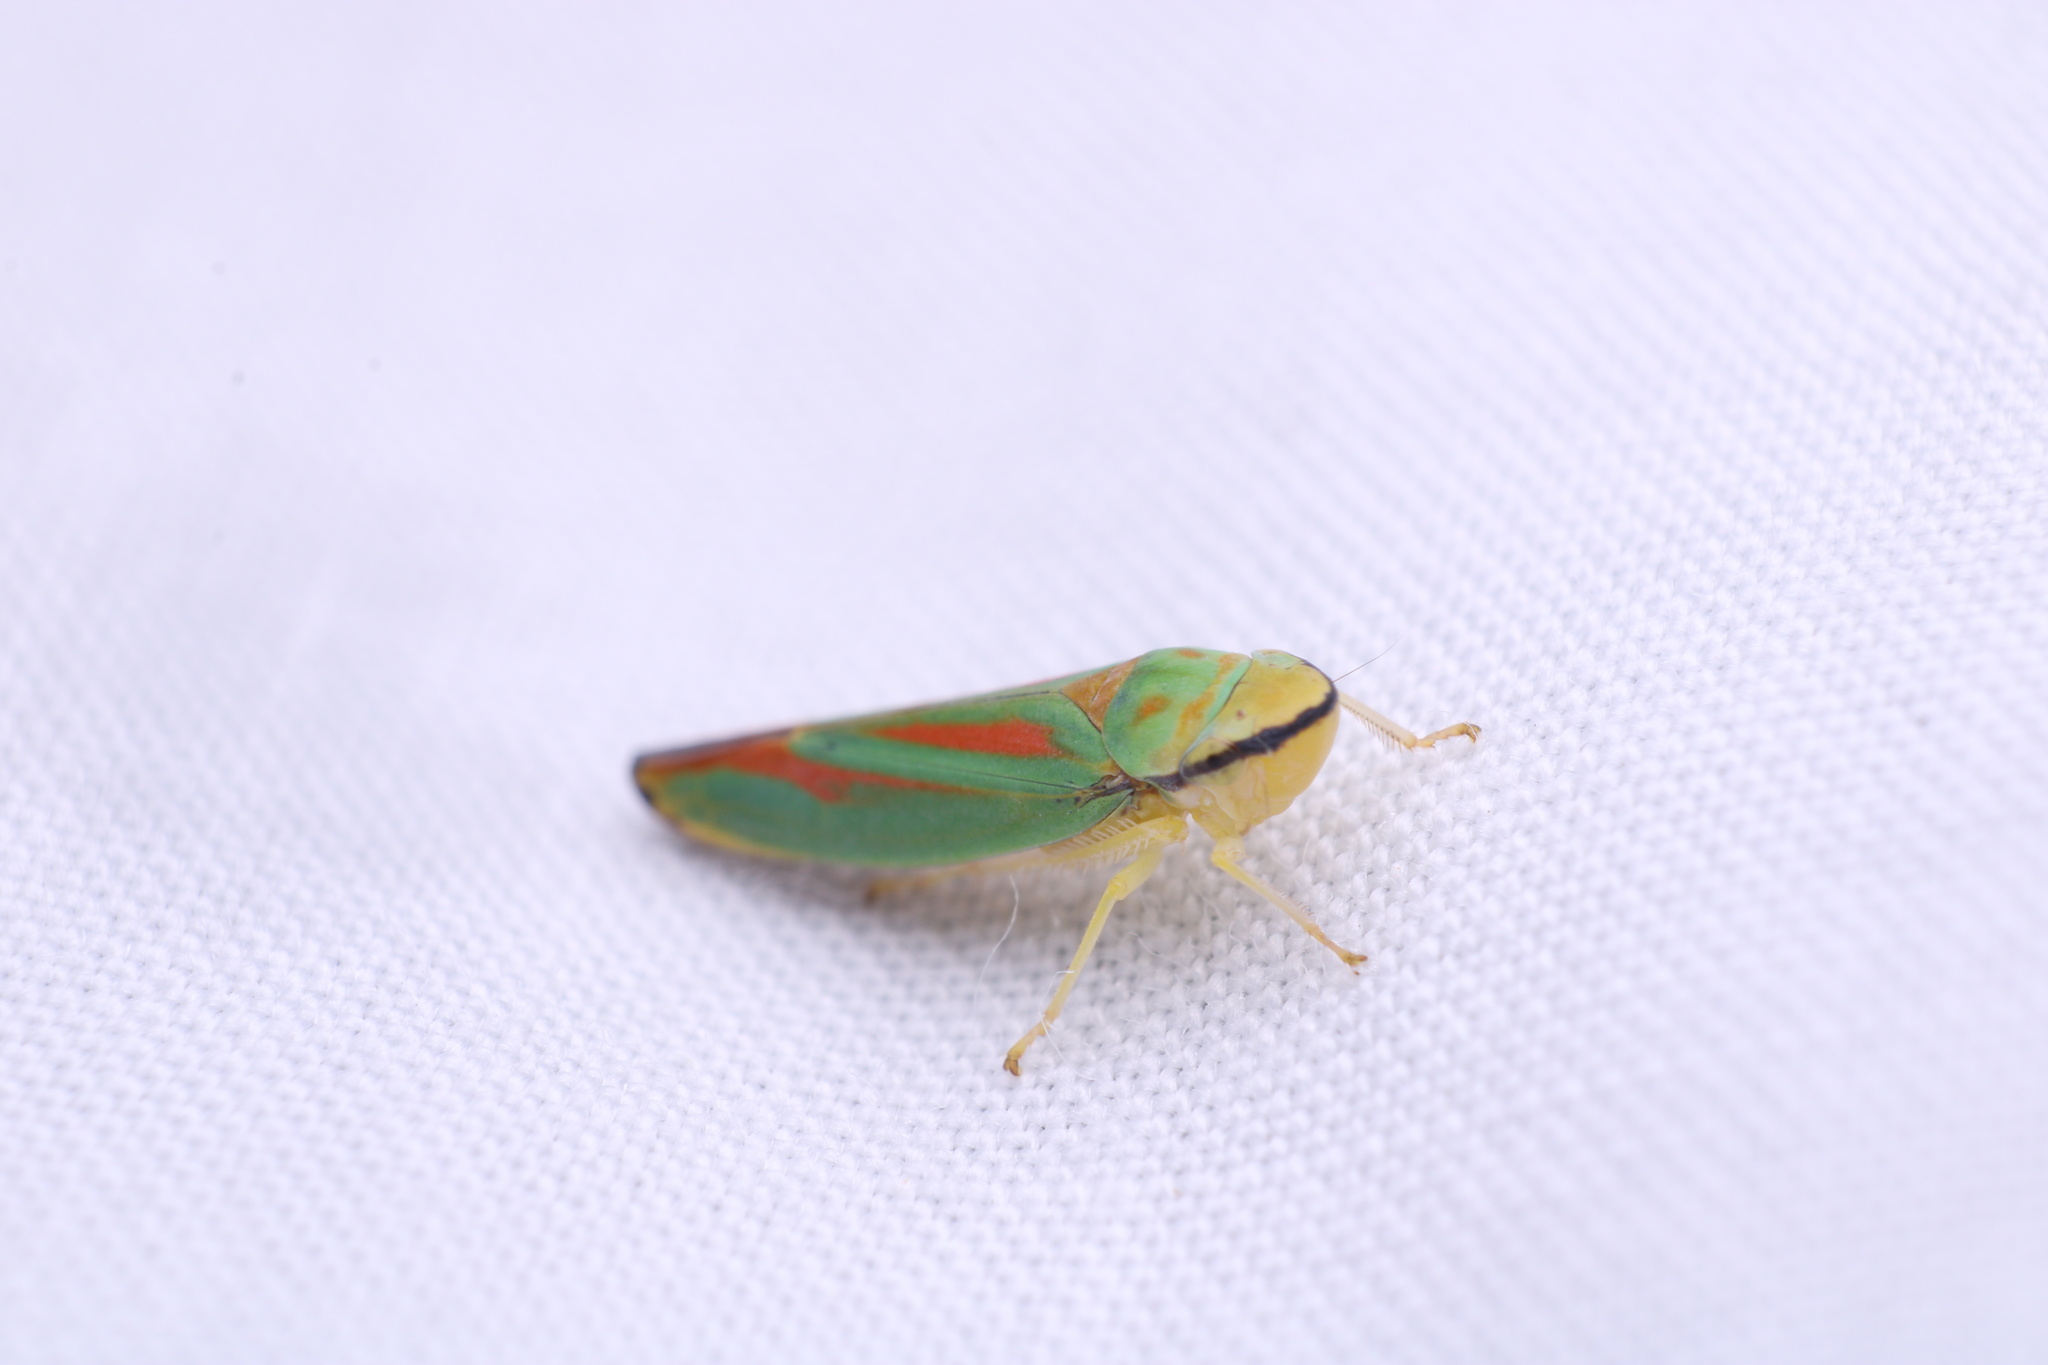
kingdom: Animalia
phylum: Arthropoda
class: Insecta
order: Hemiptera
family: Cicadellidae
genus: Graphocephala
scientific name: Graphocephala fennahi
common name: Rhododendron leafhopper
